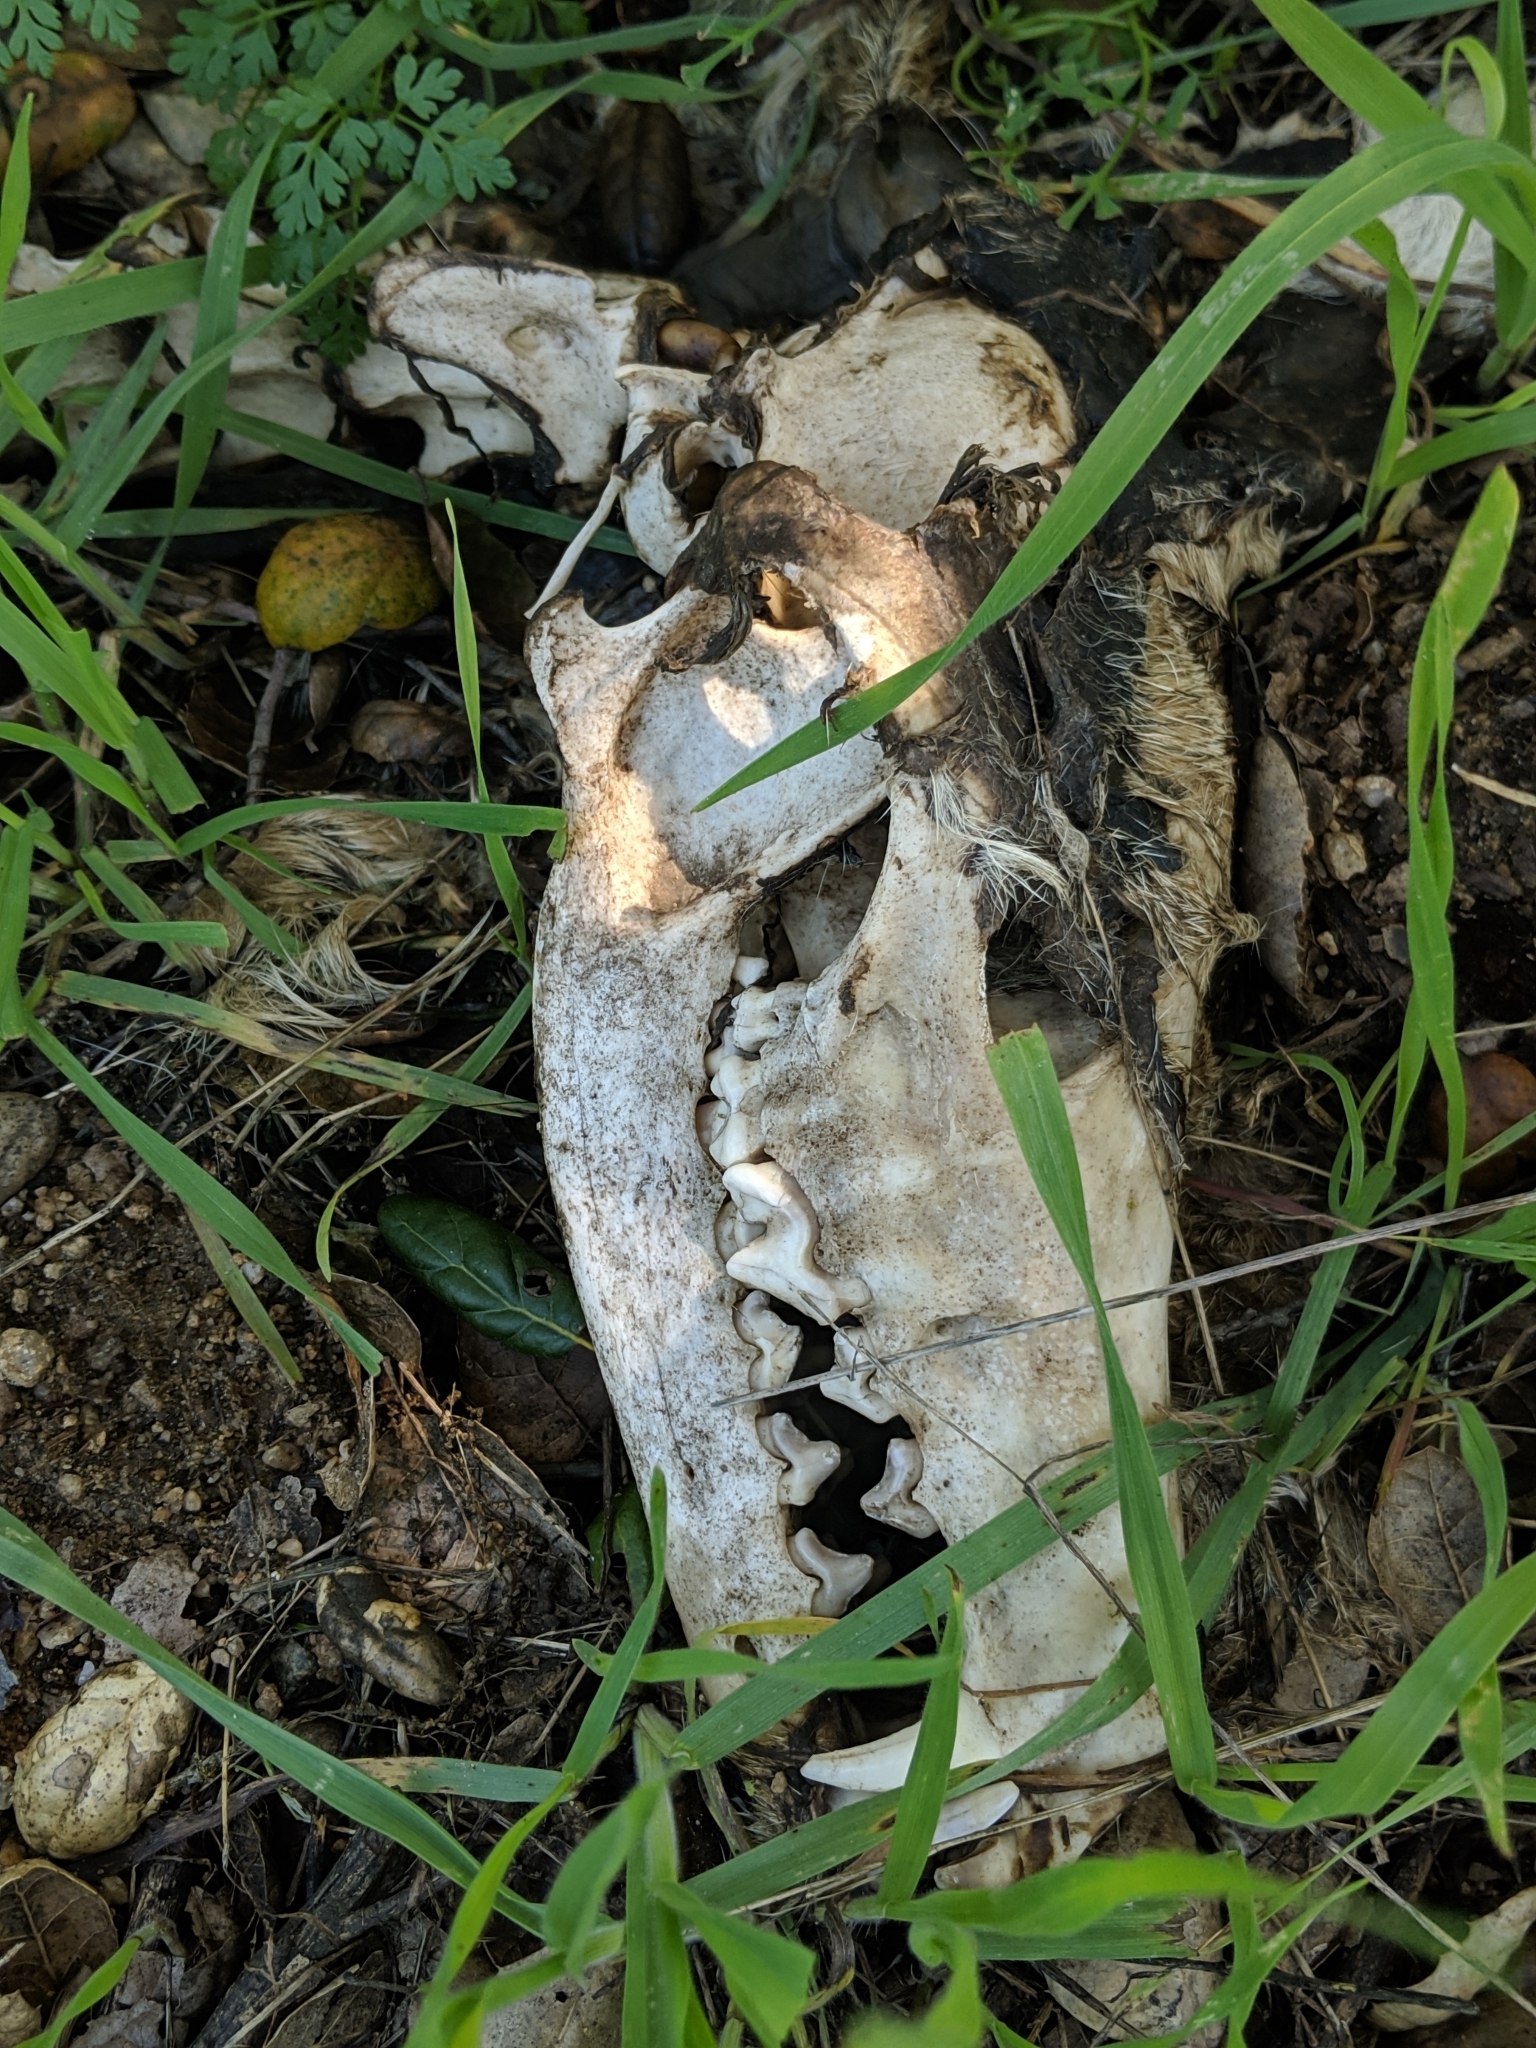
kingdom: Animalia
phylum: Chordata
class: Mammalia
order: Carnivora
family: Canidae
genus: Canis
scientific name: Canis lupus
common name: Gray wolf
